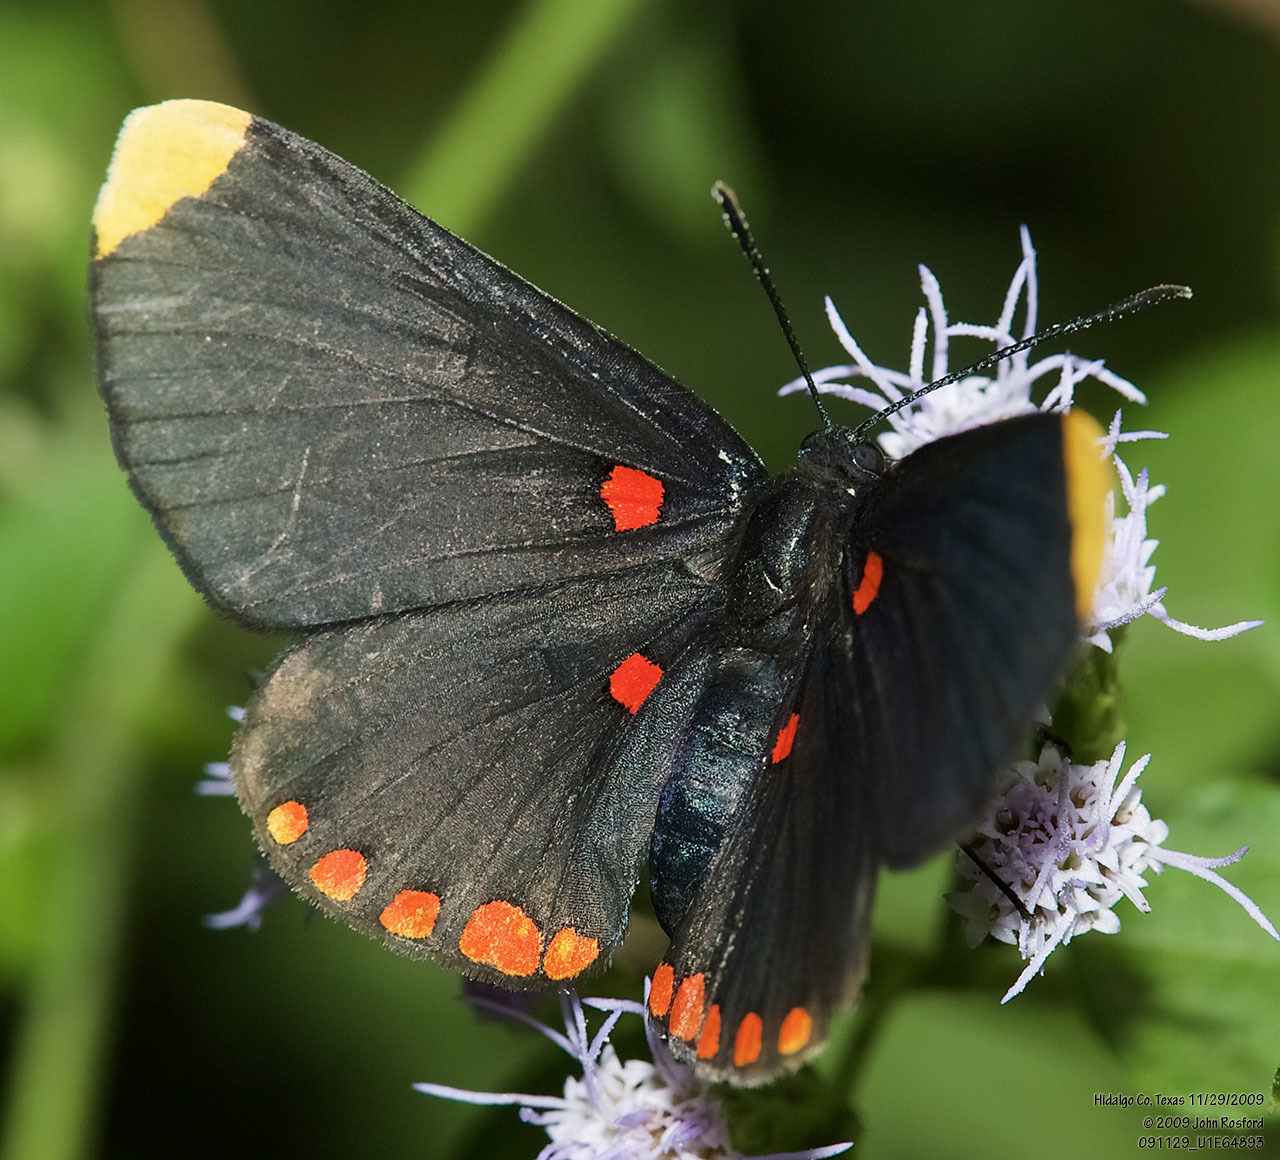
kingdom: Animalia
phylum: Arthropoda
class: Insecta
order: Lepidoptera
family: Lycaenidae
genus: Melanis
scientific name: Melanis pixe
